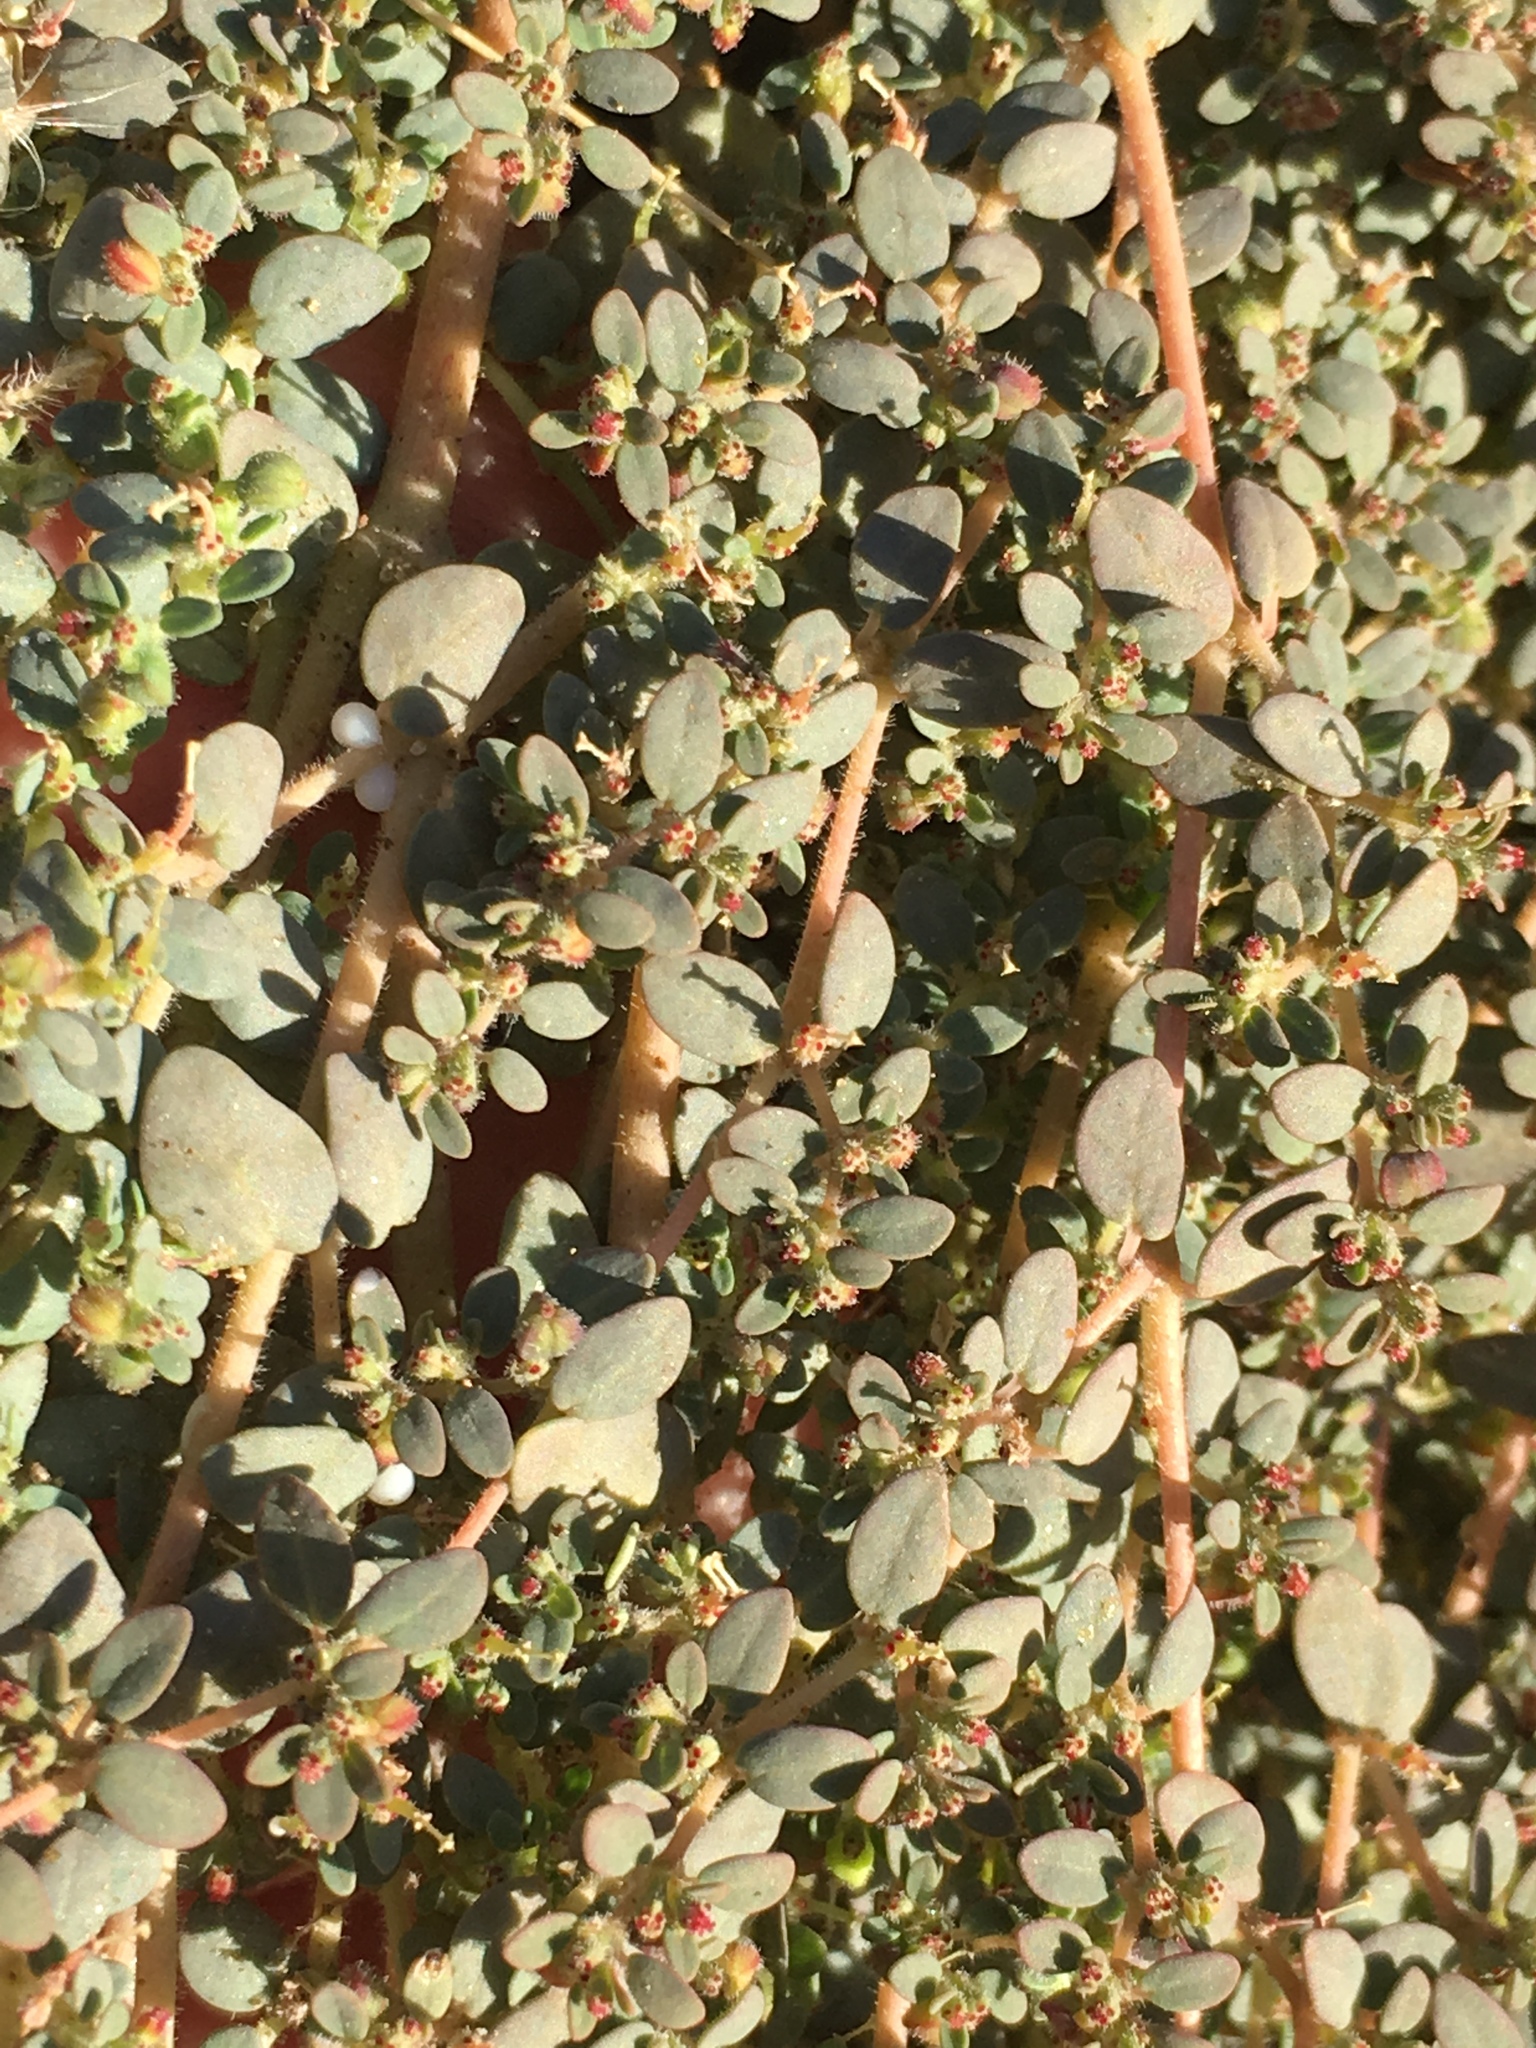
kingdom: Plantae
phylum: Tracheophyta
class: Magnoliopsida
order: Malpighiales
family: Euphorbiaceae
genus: Euphorbia
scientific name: Euphorbia micromera
